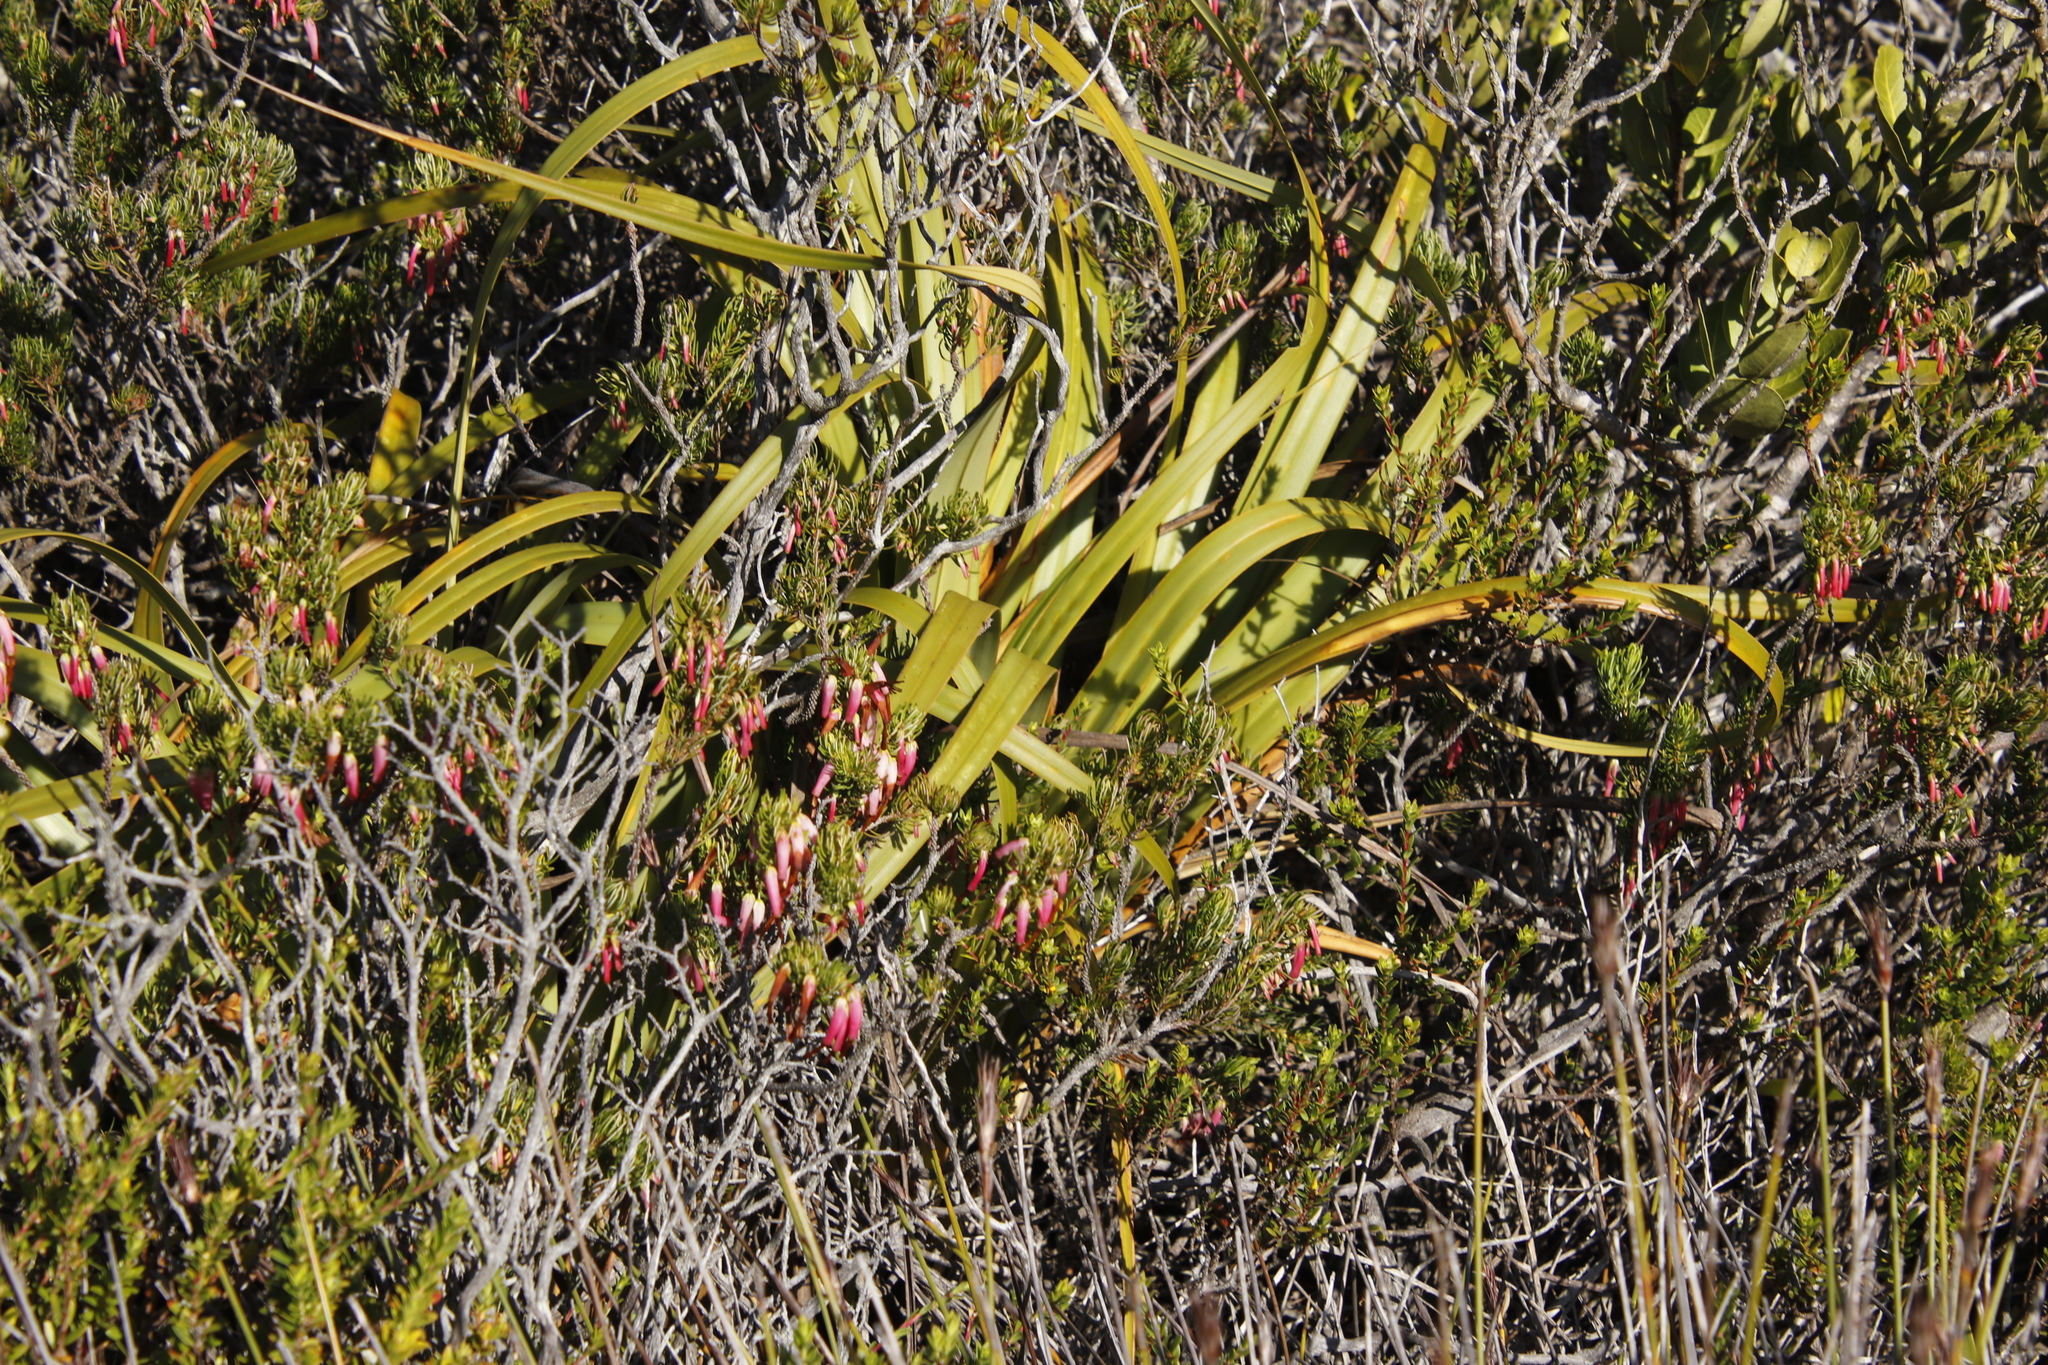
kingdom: Plantae
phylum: Tracheophyta
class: Liliopsida
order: Poales
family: Cyperaceae
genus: Tetraria
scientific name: Tetraria thermalis
